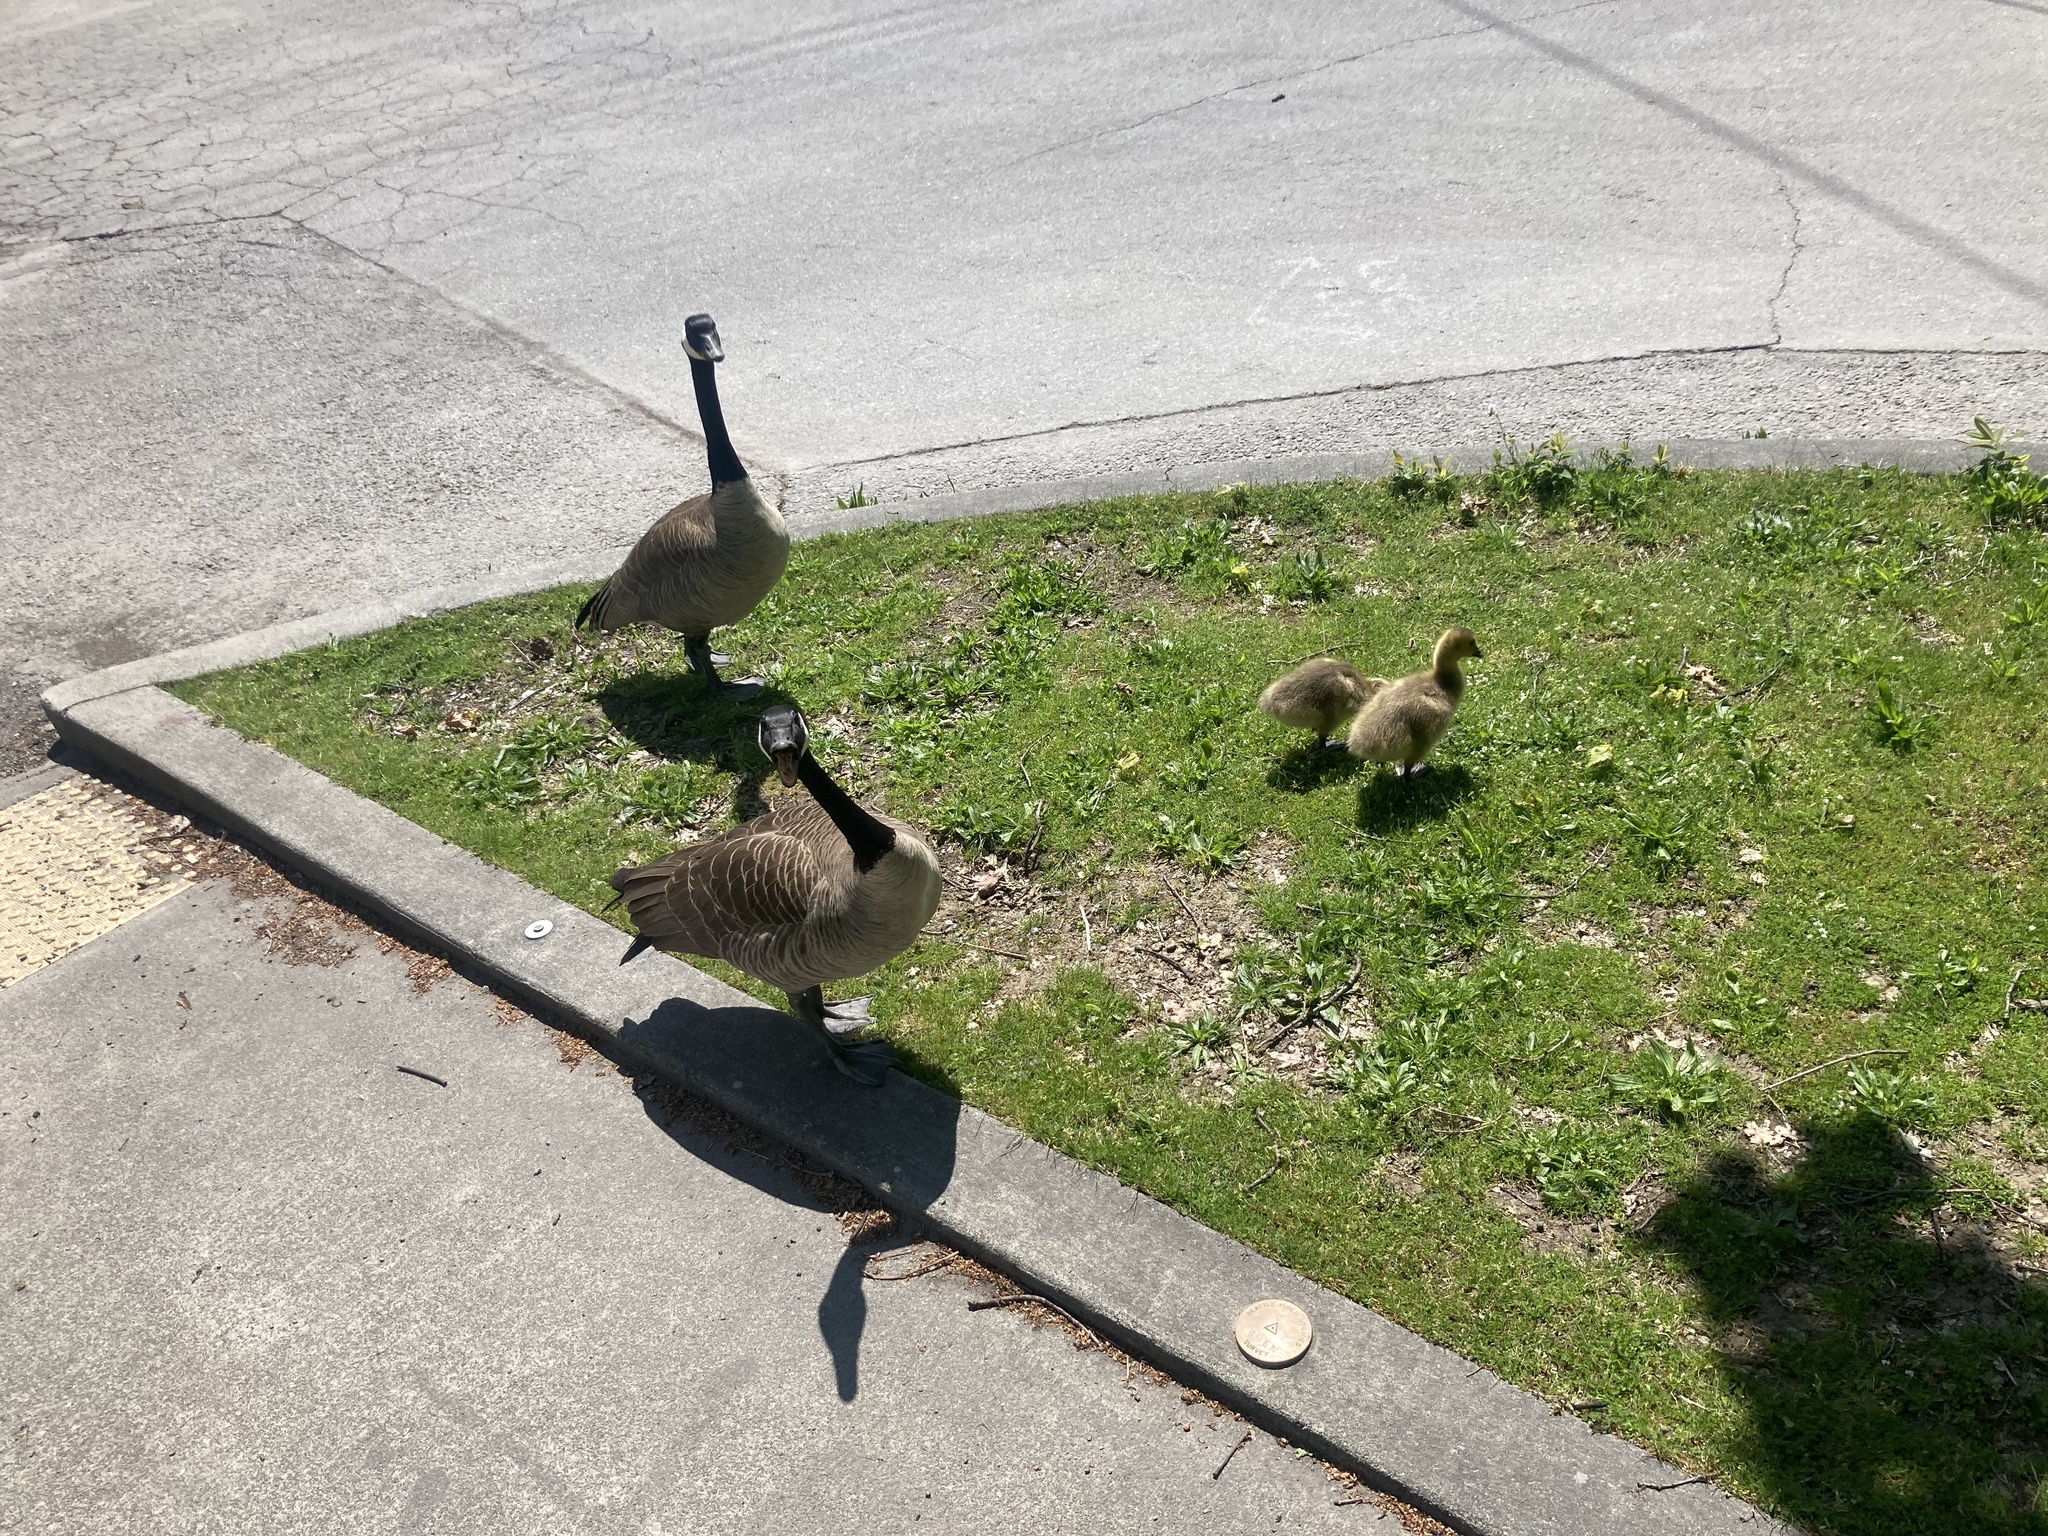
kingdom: Animalia
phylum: Chordata
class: Aves
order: Anseriformes
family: Anatidae
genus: Branta
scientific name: Branta canadensis
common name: Canada goose
